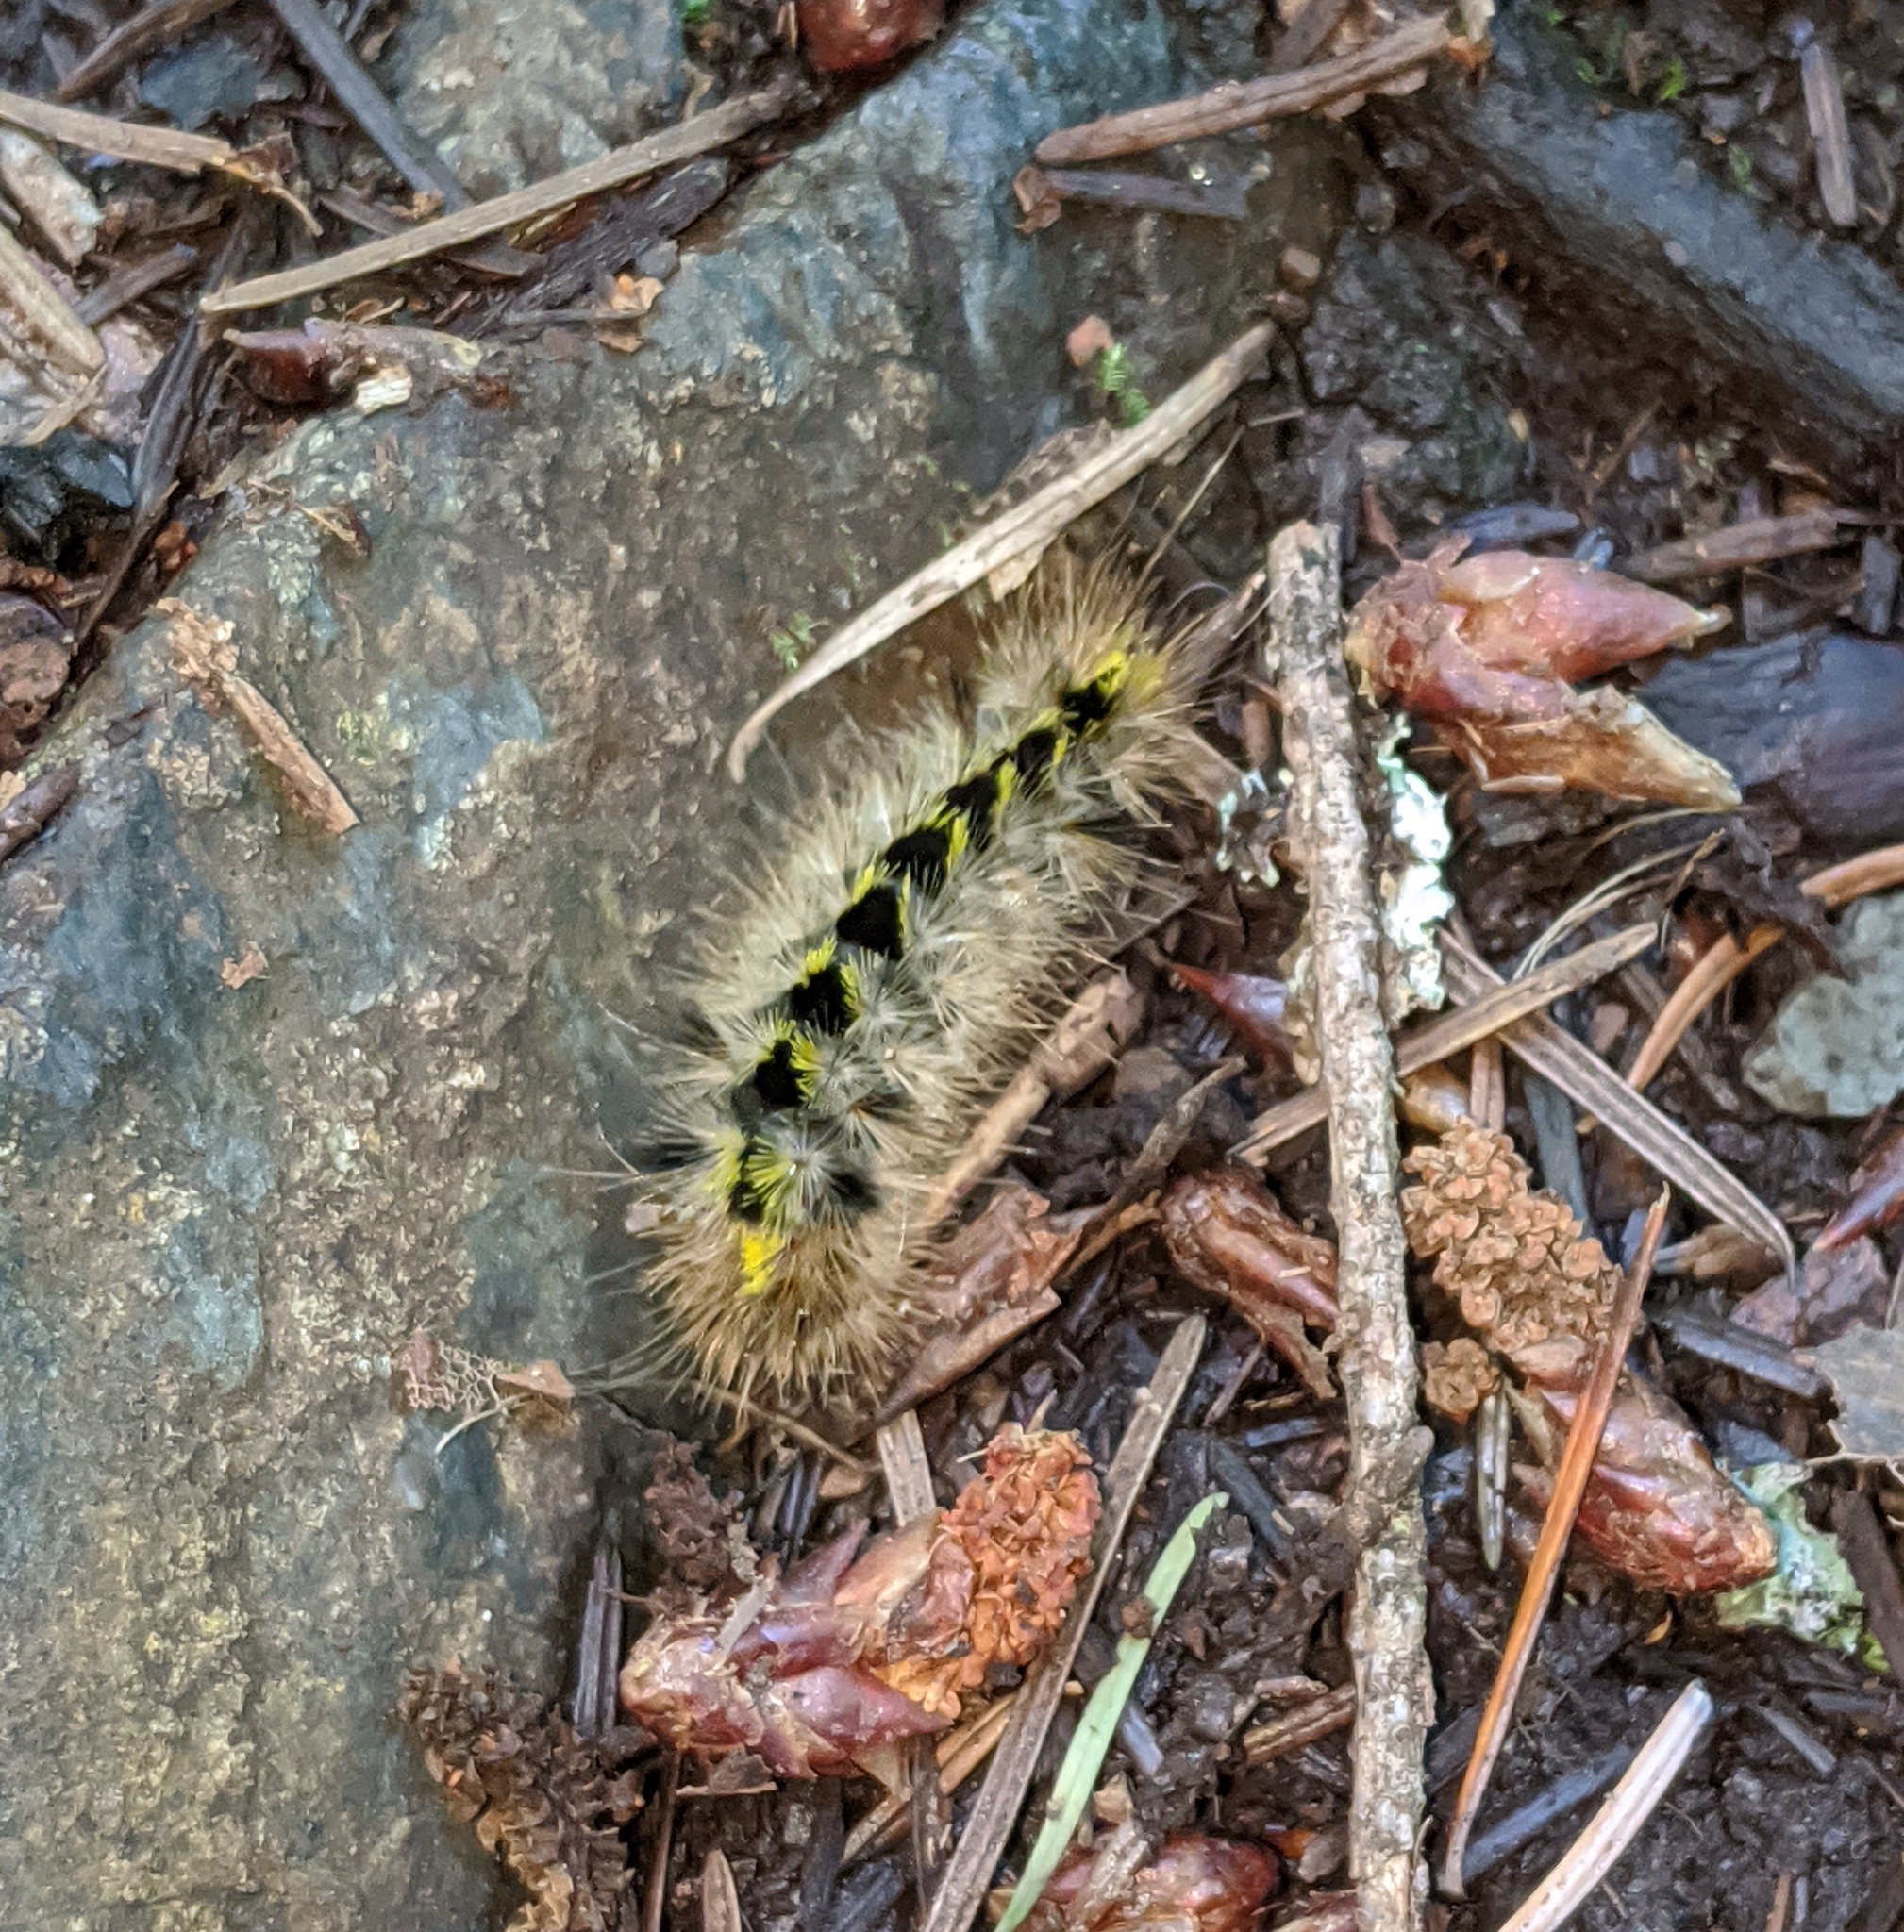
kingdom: Animalia
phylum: Arthropoda
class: Insecta
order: Lepidoptera
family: Erebidae
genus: Lophocampa
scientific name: Lophocampa argentata
